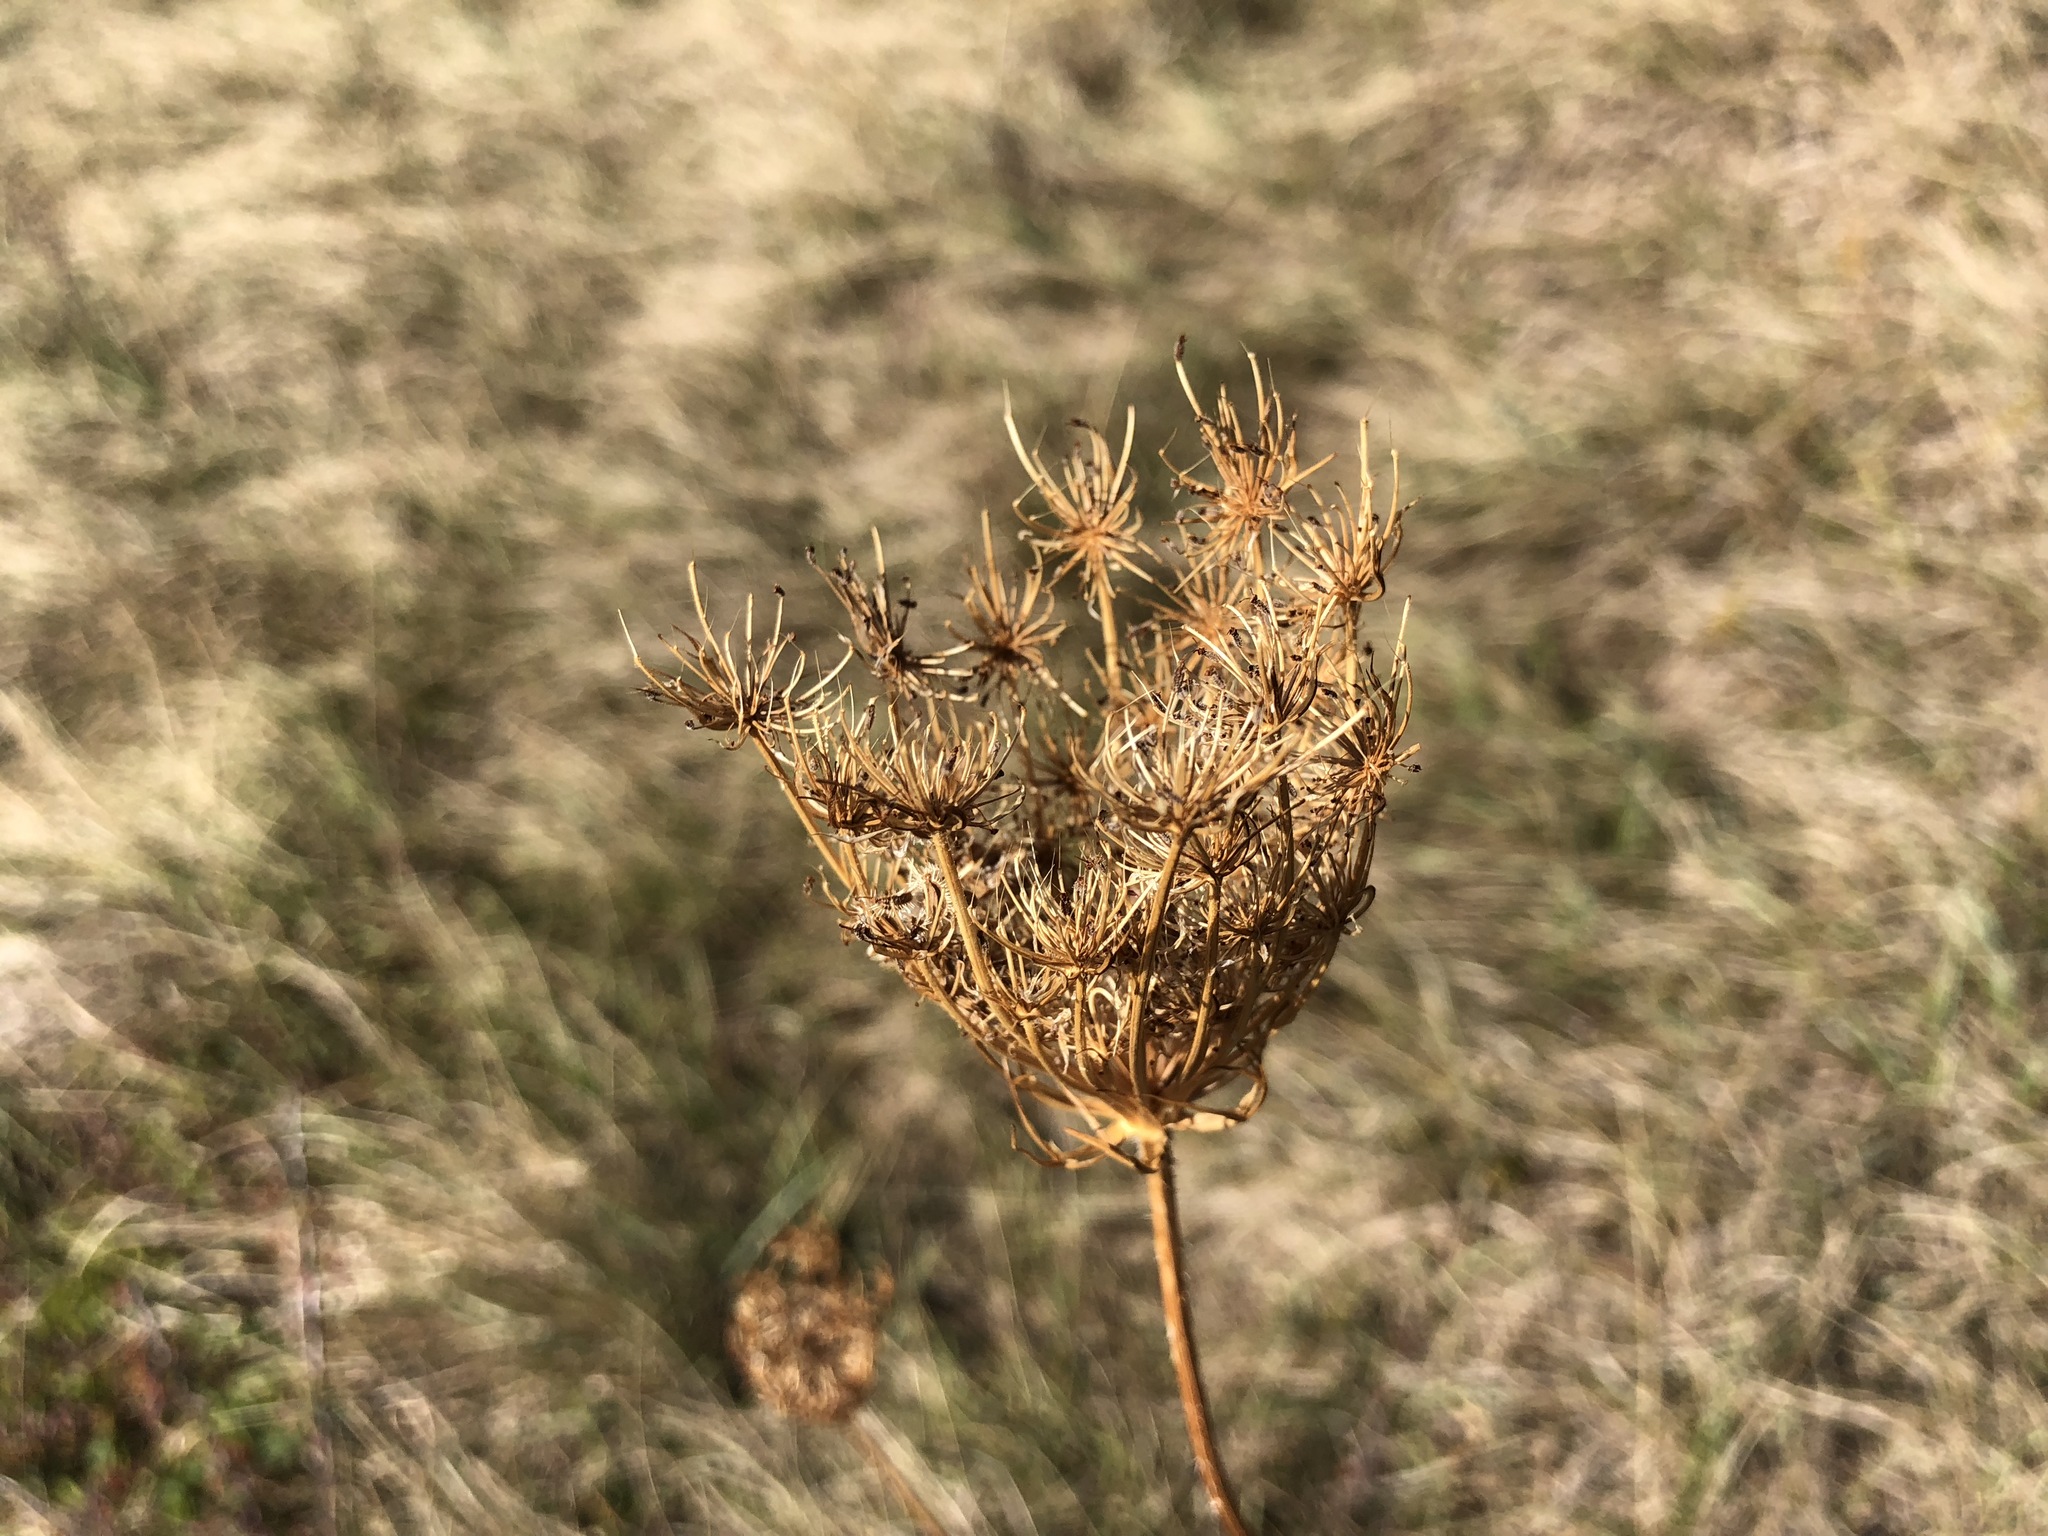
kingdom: Plantae
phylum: Tracheophyta
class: Magnoliopsida
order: Apiales
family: Apiaceae
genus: Daucus
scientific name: Daucus carota
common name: Wild carrot
